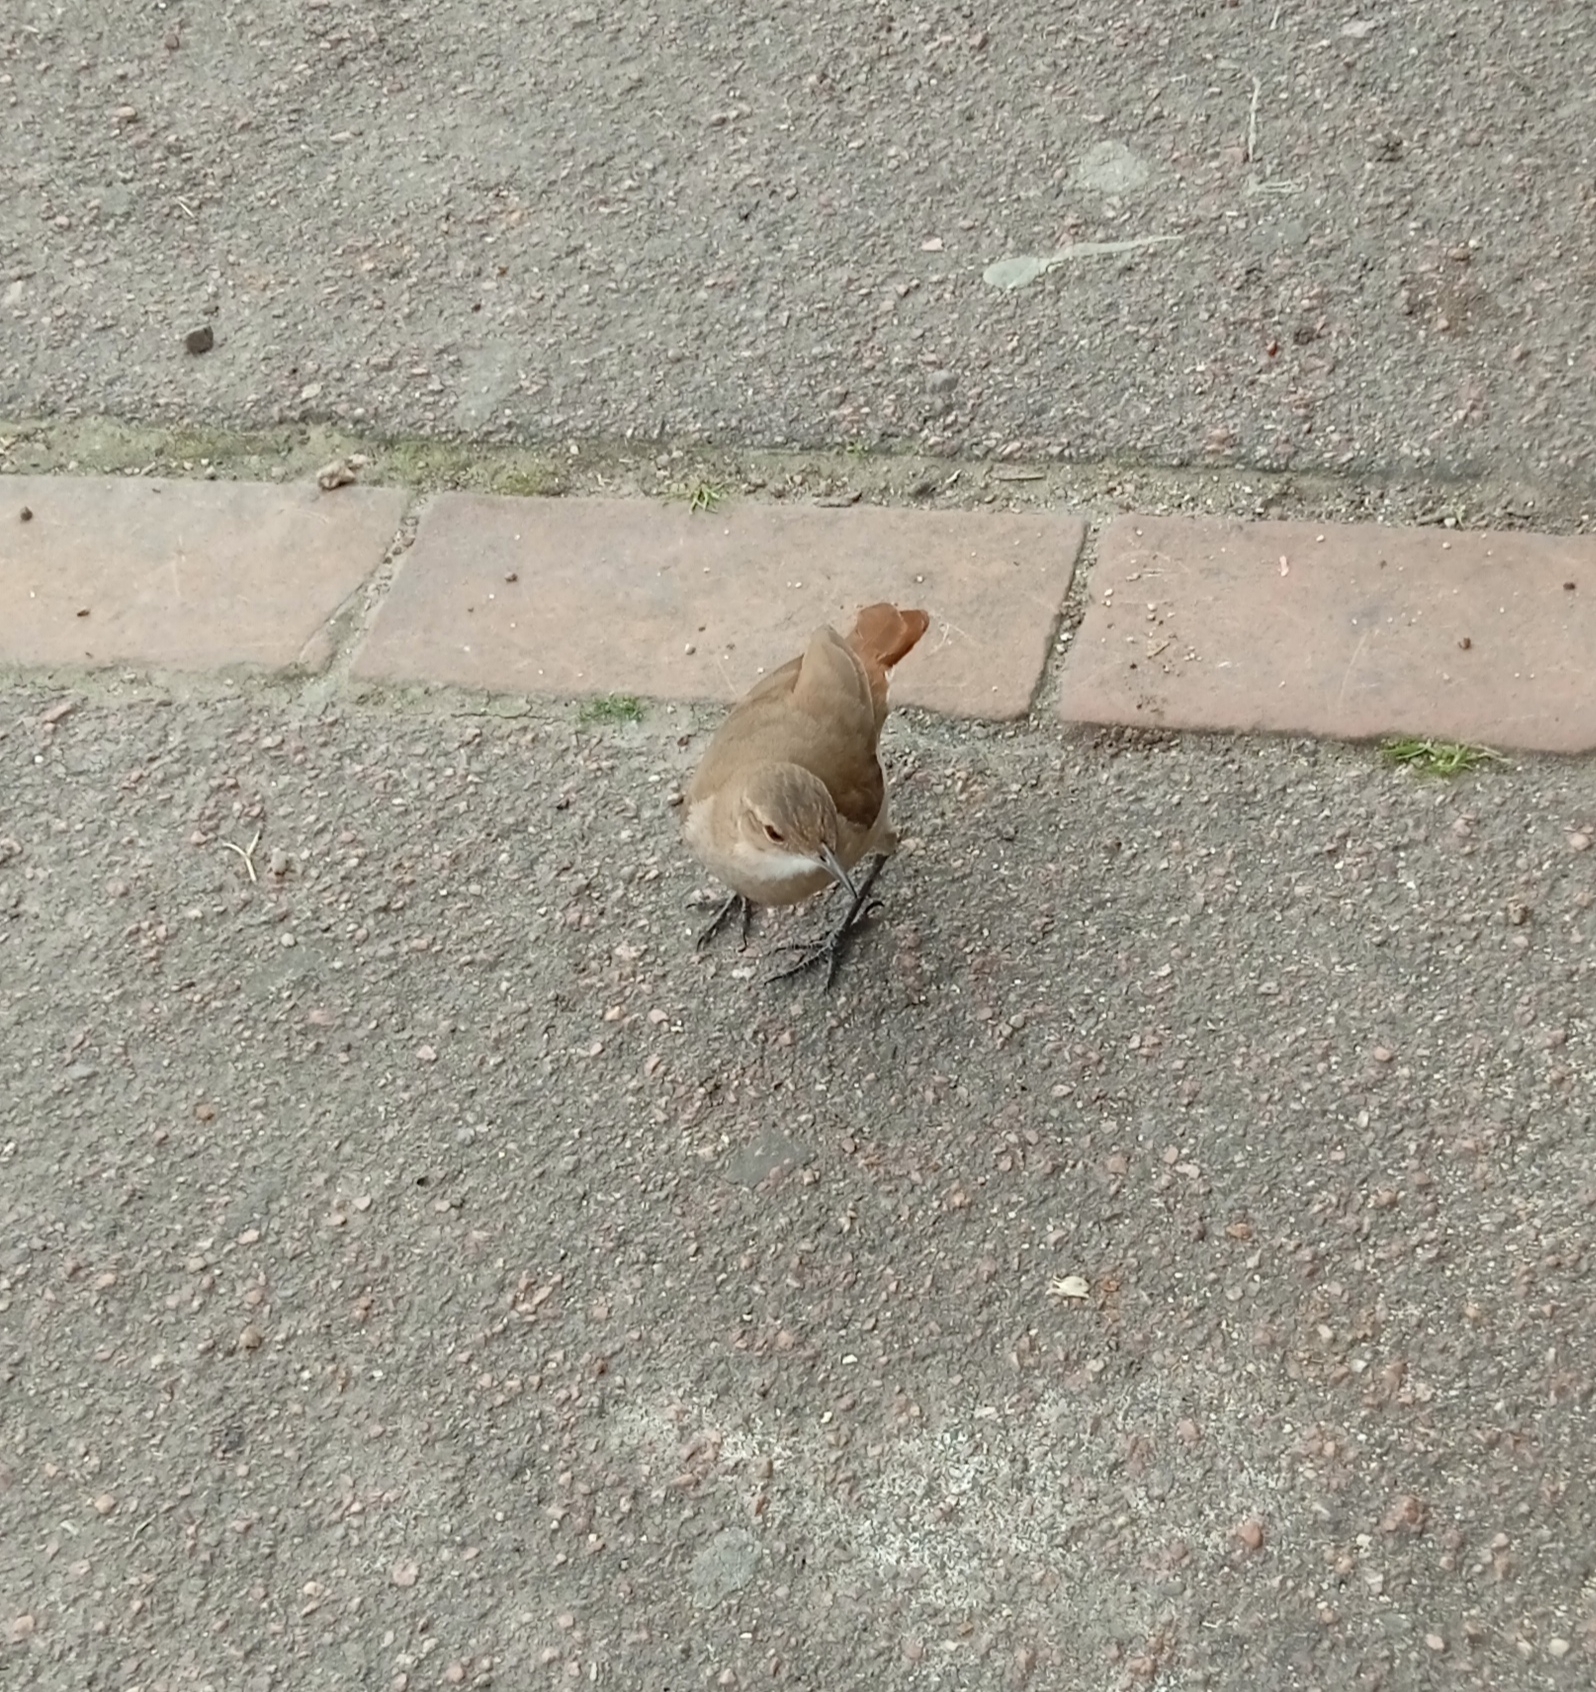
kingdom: Animalia
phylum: Chordata
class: Aves
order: Passeriformes
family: Furnariidae
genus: Furnarius
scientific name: Furnarius rufus
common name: Rufous hornero
